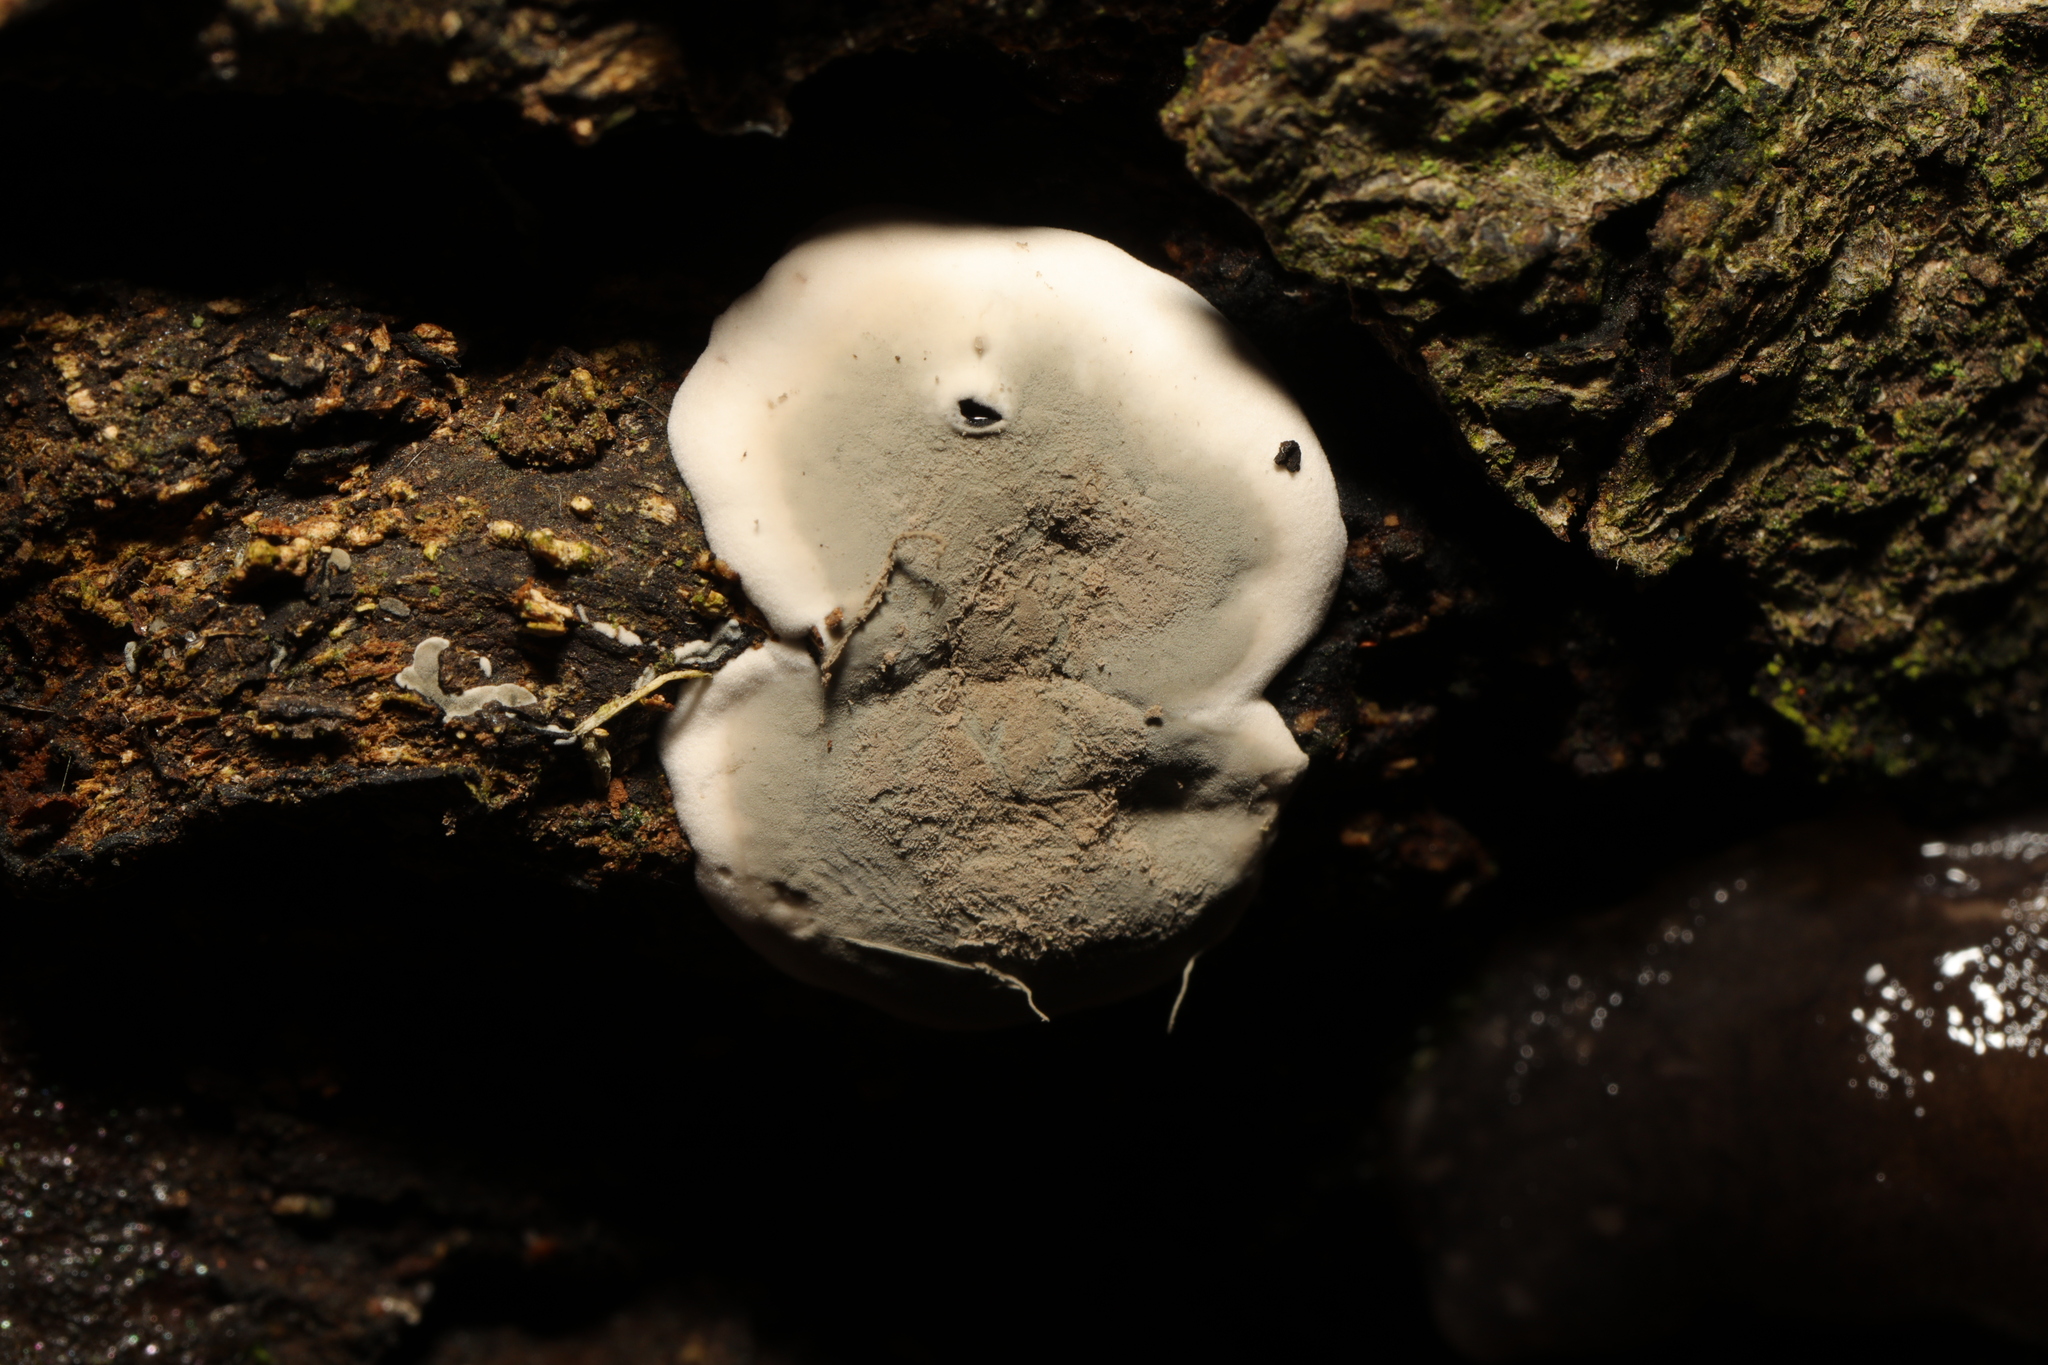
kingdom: Fungi
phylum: Ascomycota
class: Sordariomycetes
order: Xylariales
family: Xylariaceae
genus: Kretzschmaria
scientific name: Kretzschmaria deusta
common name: Brittle cinder
